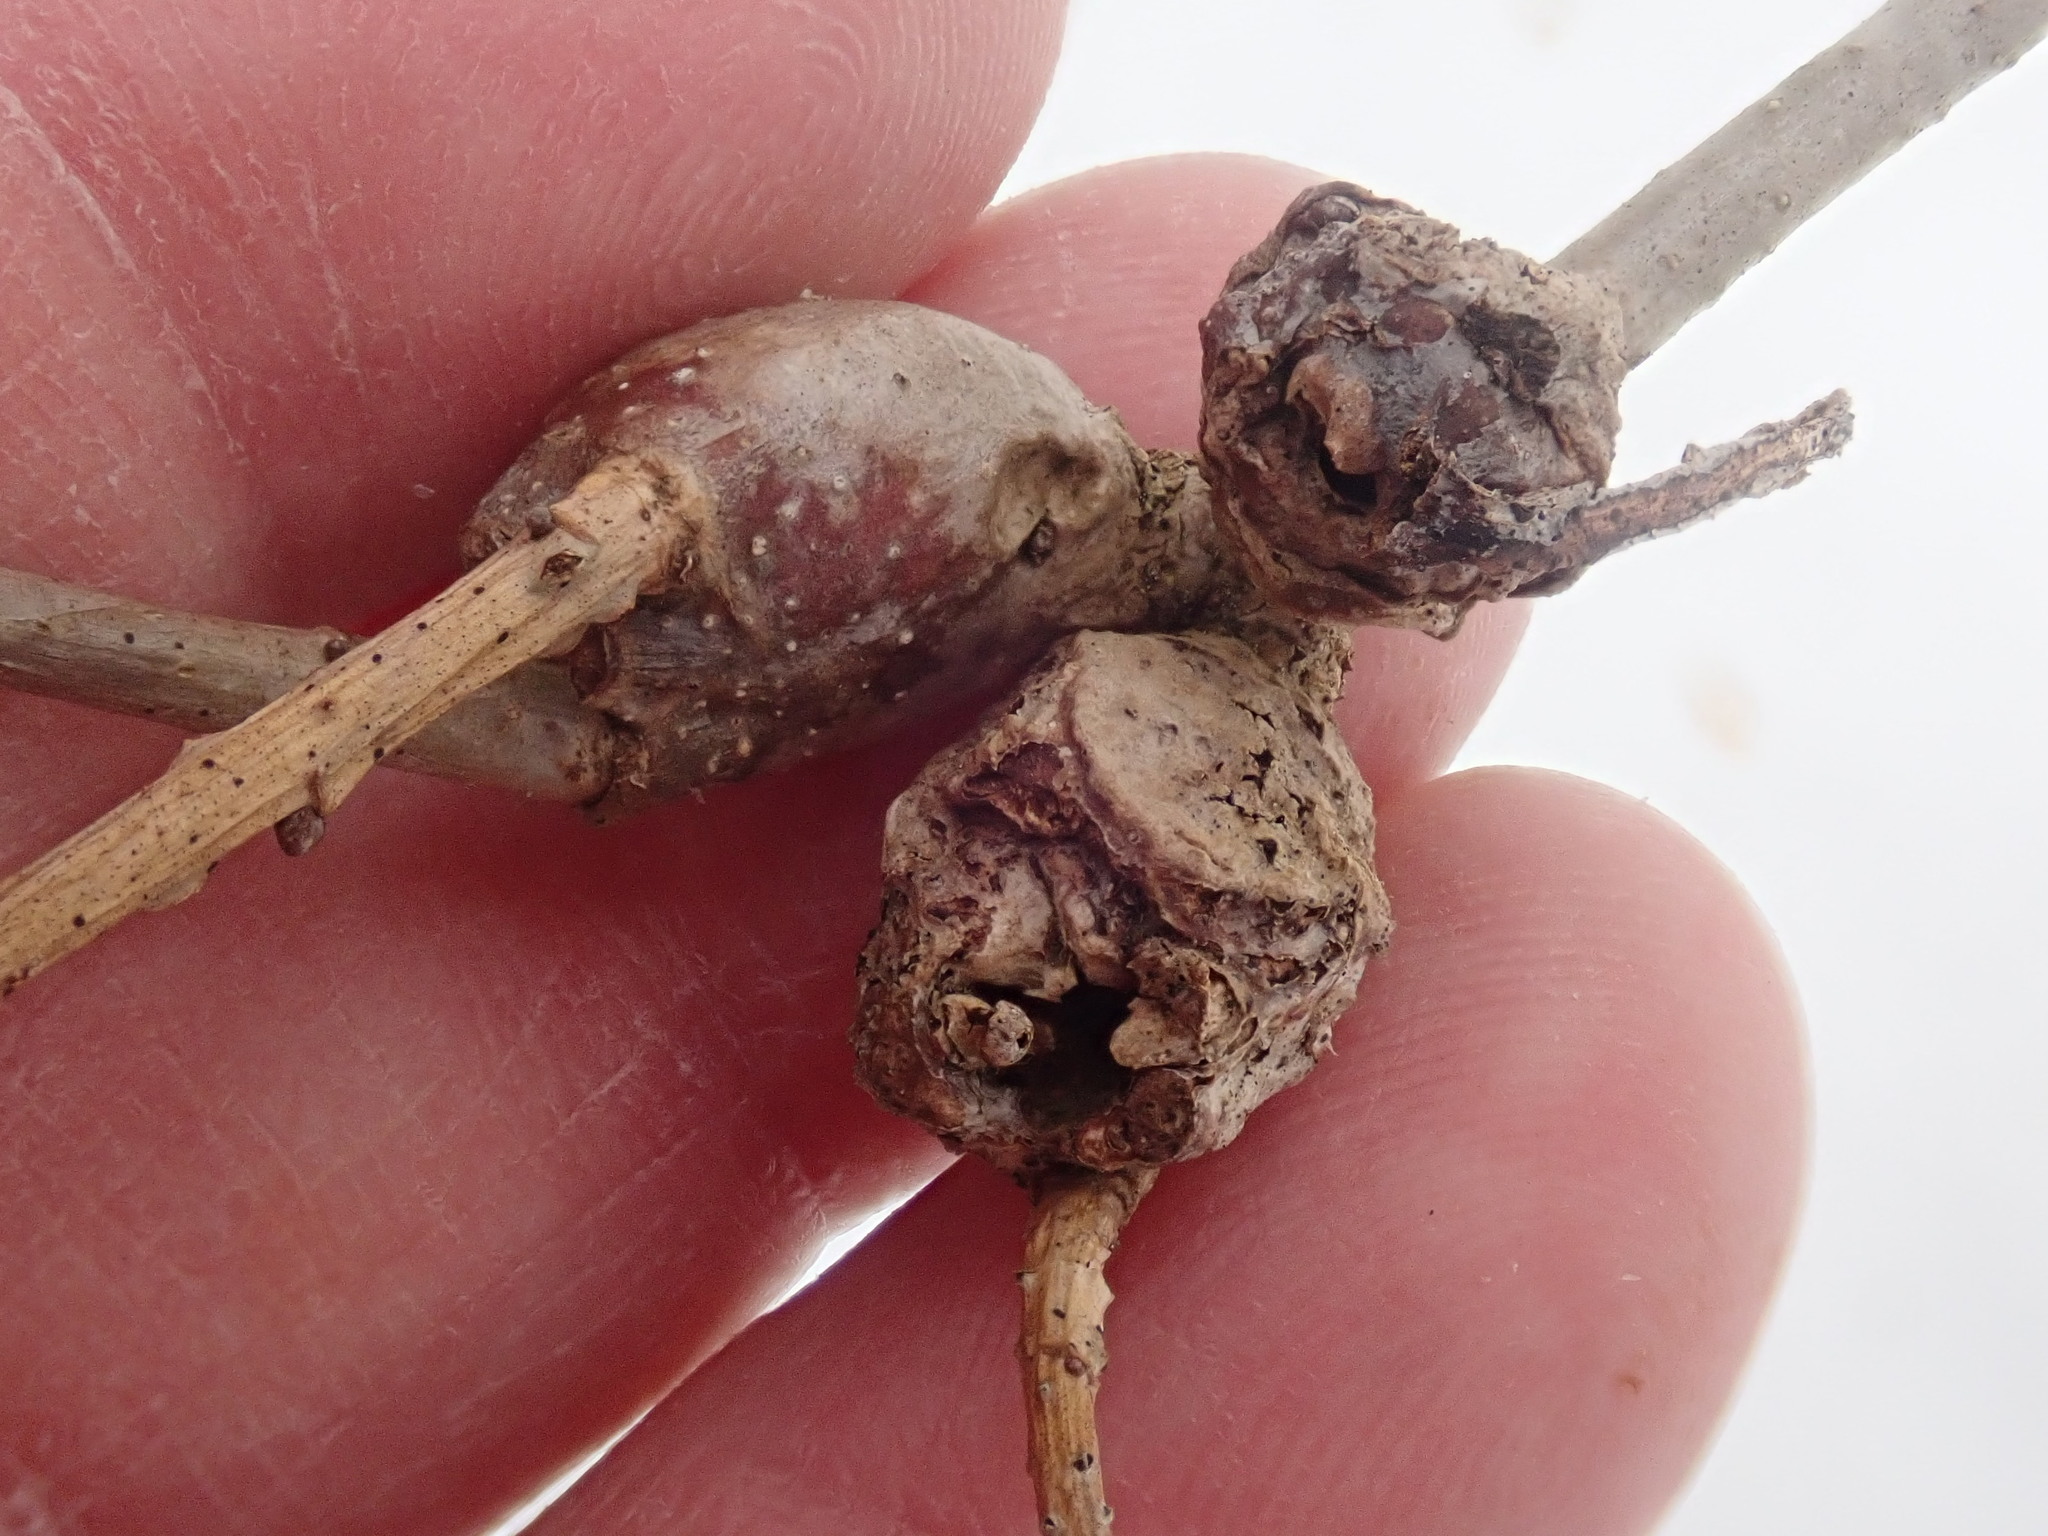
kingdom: Animalia
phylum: Arthropoda
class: Insecta
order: Hymenoptera
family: Cynipidae
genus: Callirhytis
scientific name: Callirhytis clavula
